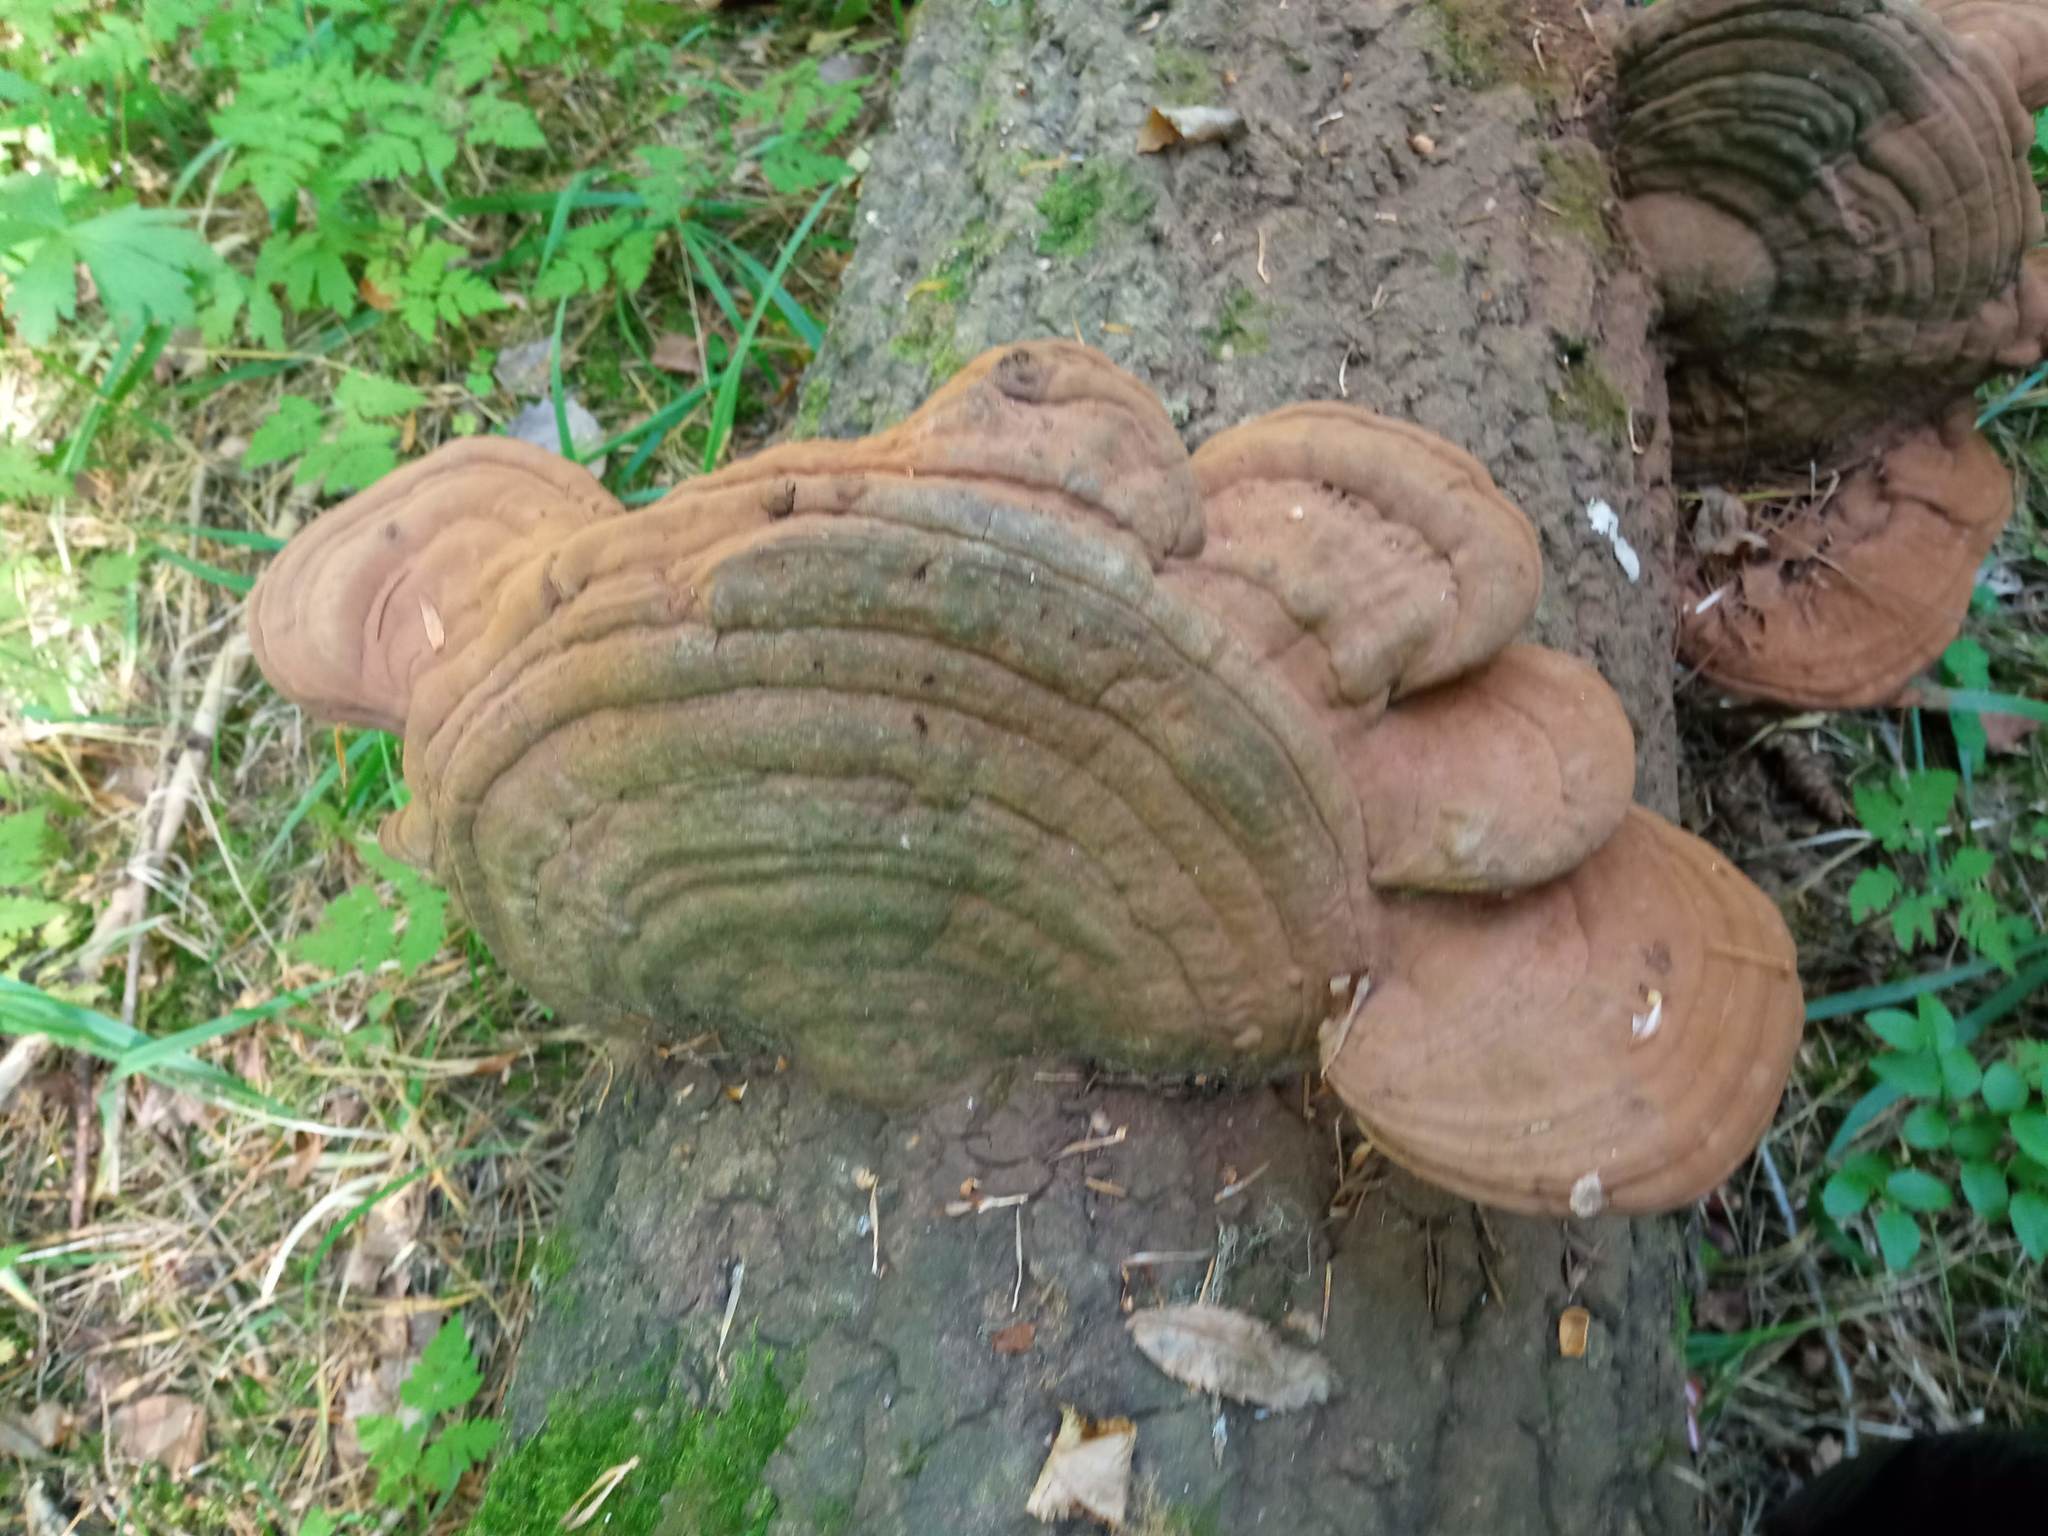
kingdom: Fungi
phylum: Basidiomycota
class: Agaricomycetes
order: Polyporales
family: Polyporaceae
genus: Ganoderma
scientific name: Ganoderma applanatum
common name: Artist's bracket
